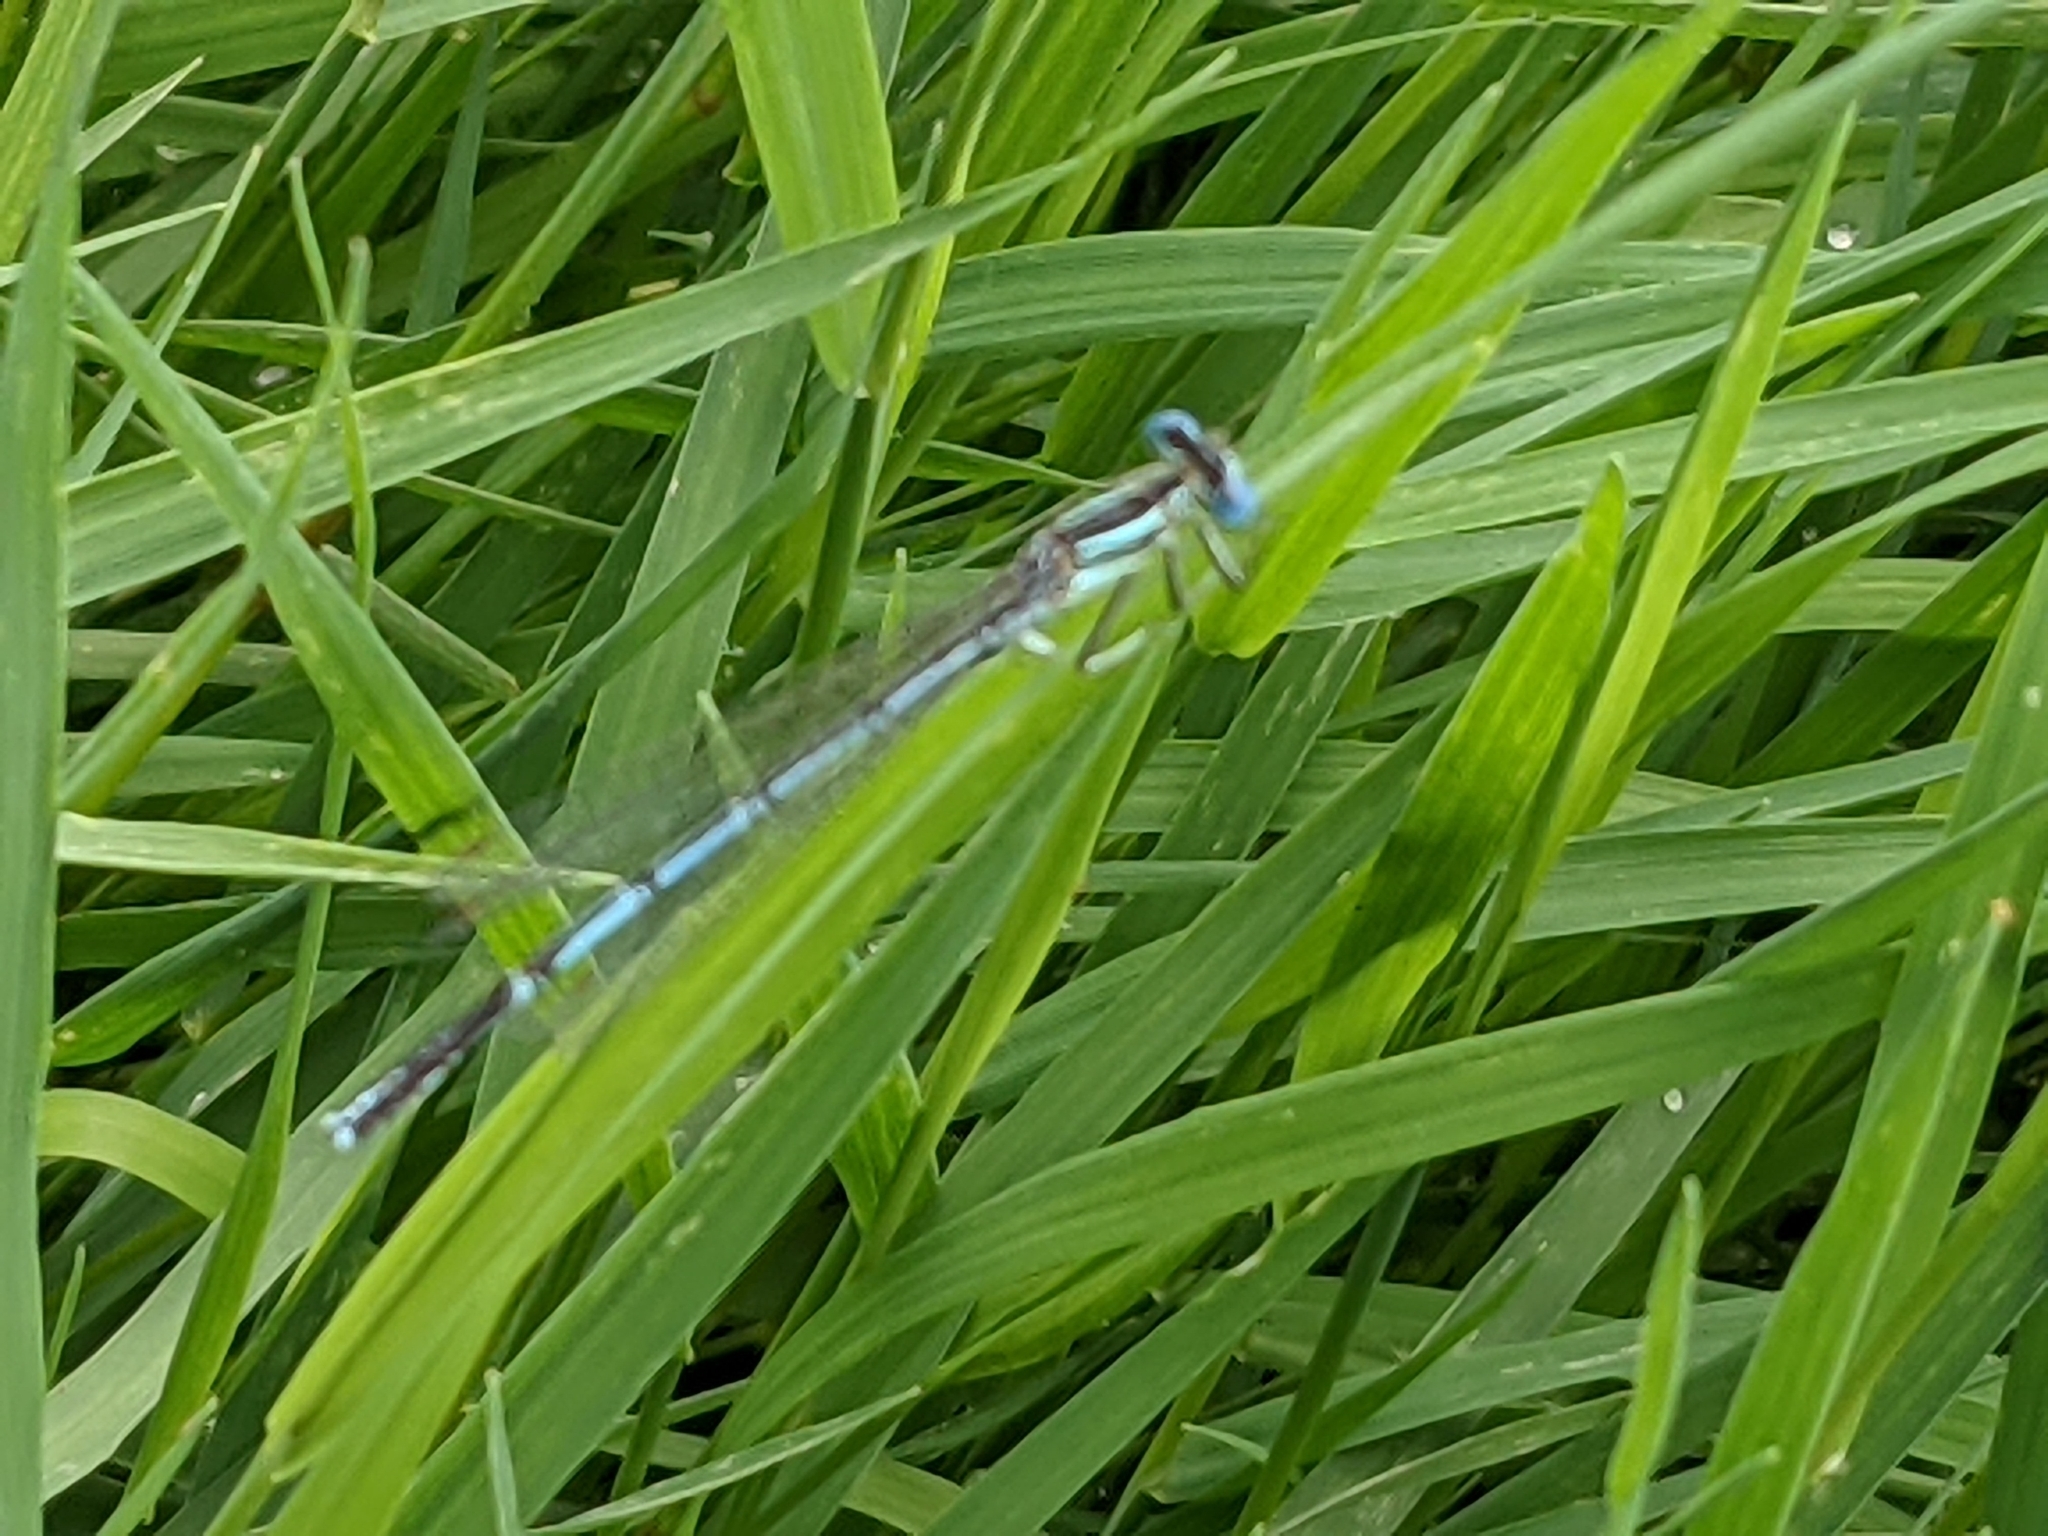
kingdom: Animalia
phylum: Arthropoda
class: Insecta
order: Odonata
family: Platycnemididae
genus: Platycnemis
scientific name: Platycnemis pennipes
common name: White-legged damselfly
